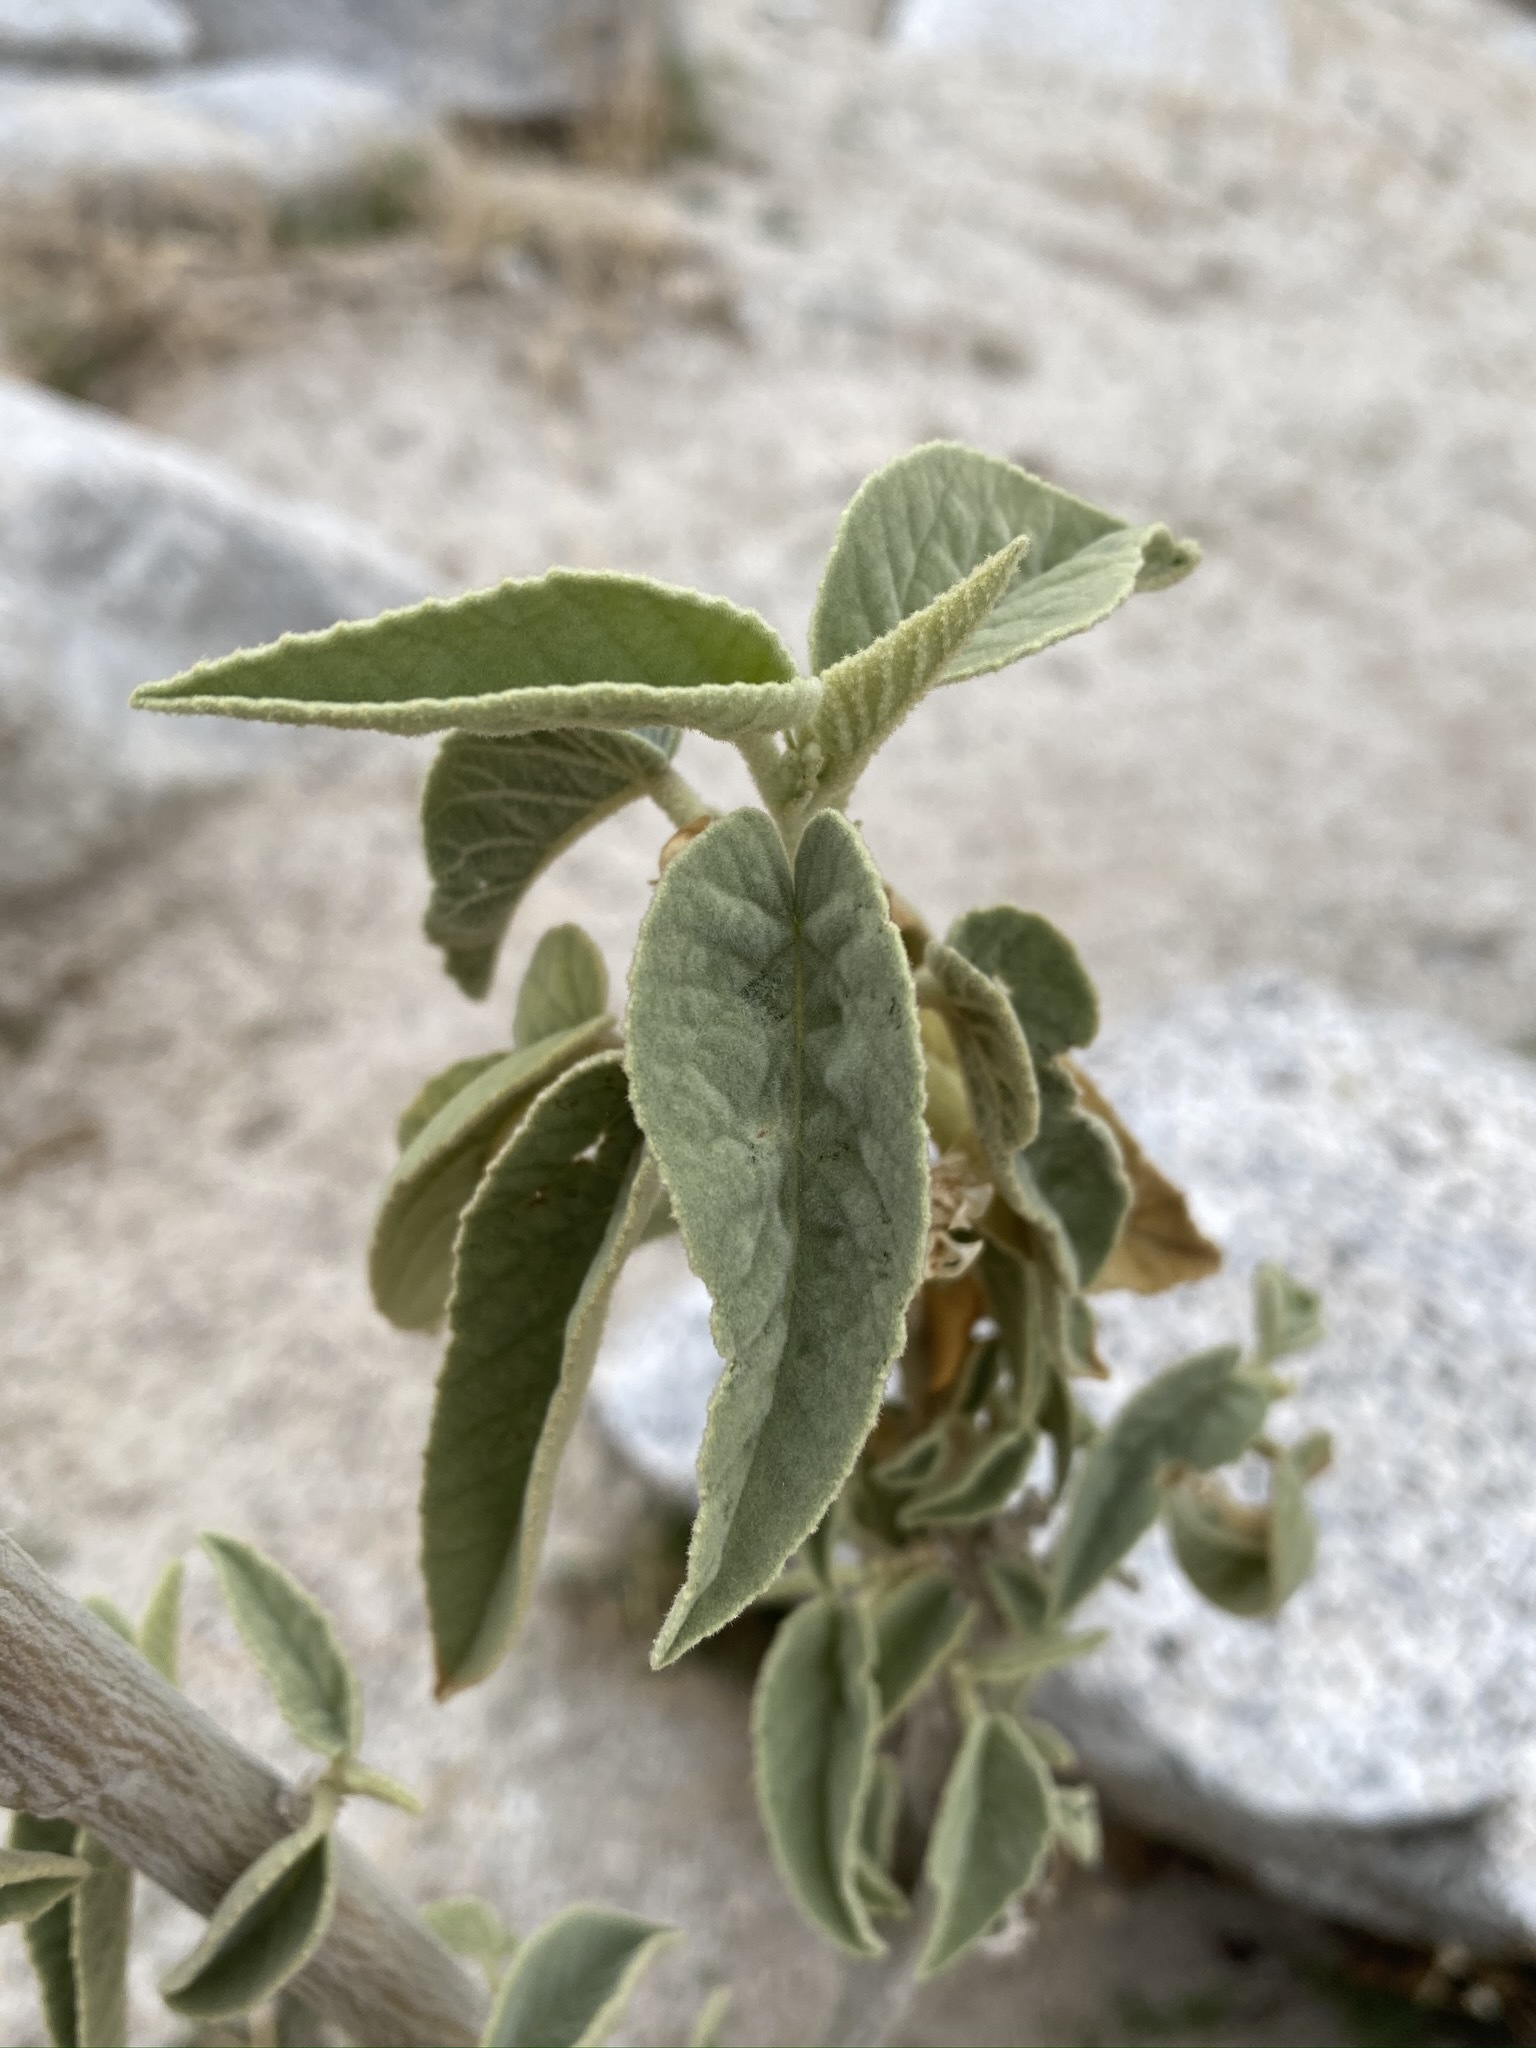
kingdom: Plantae
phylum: Tracheophyta
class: Magnoliopsida
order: Malvales
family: Malvaceae
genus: Horsfordia
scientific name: Horsfordia newberryi
